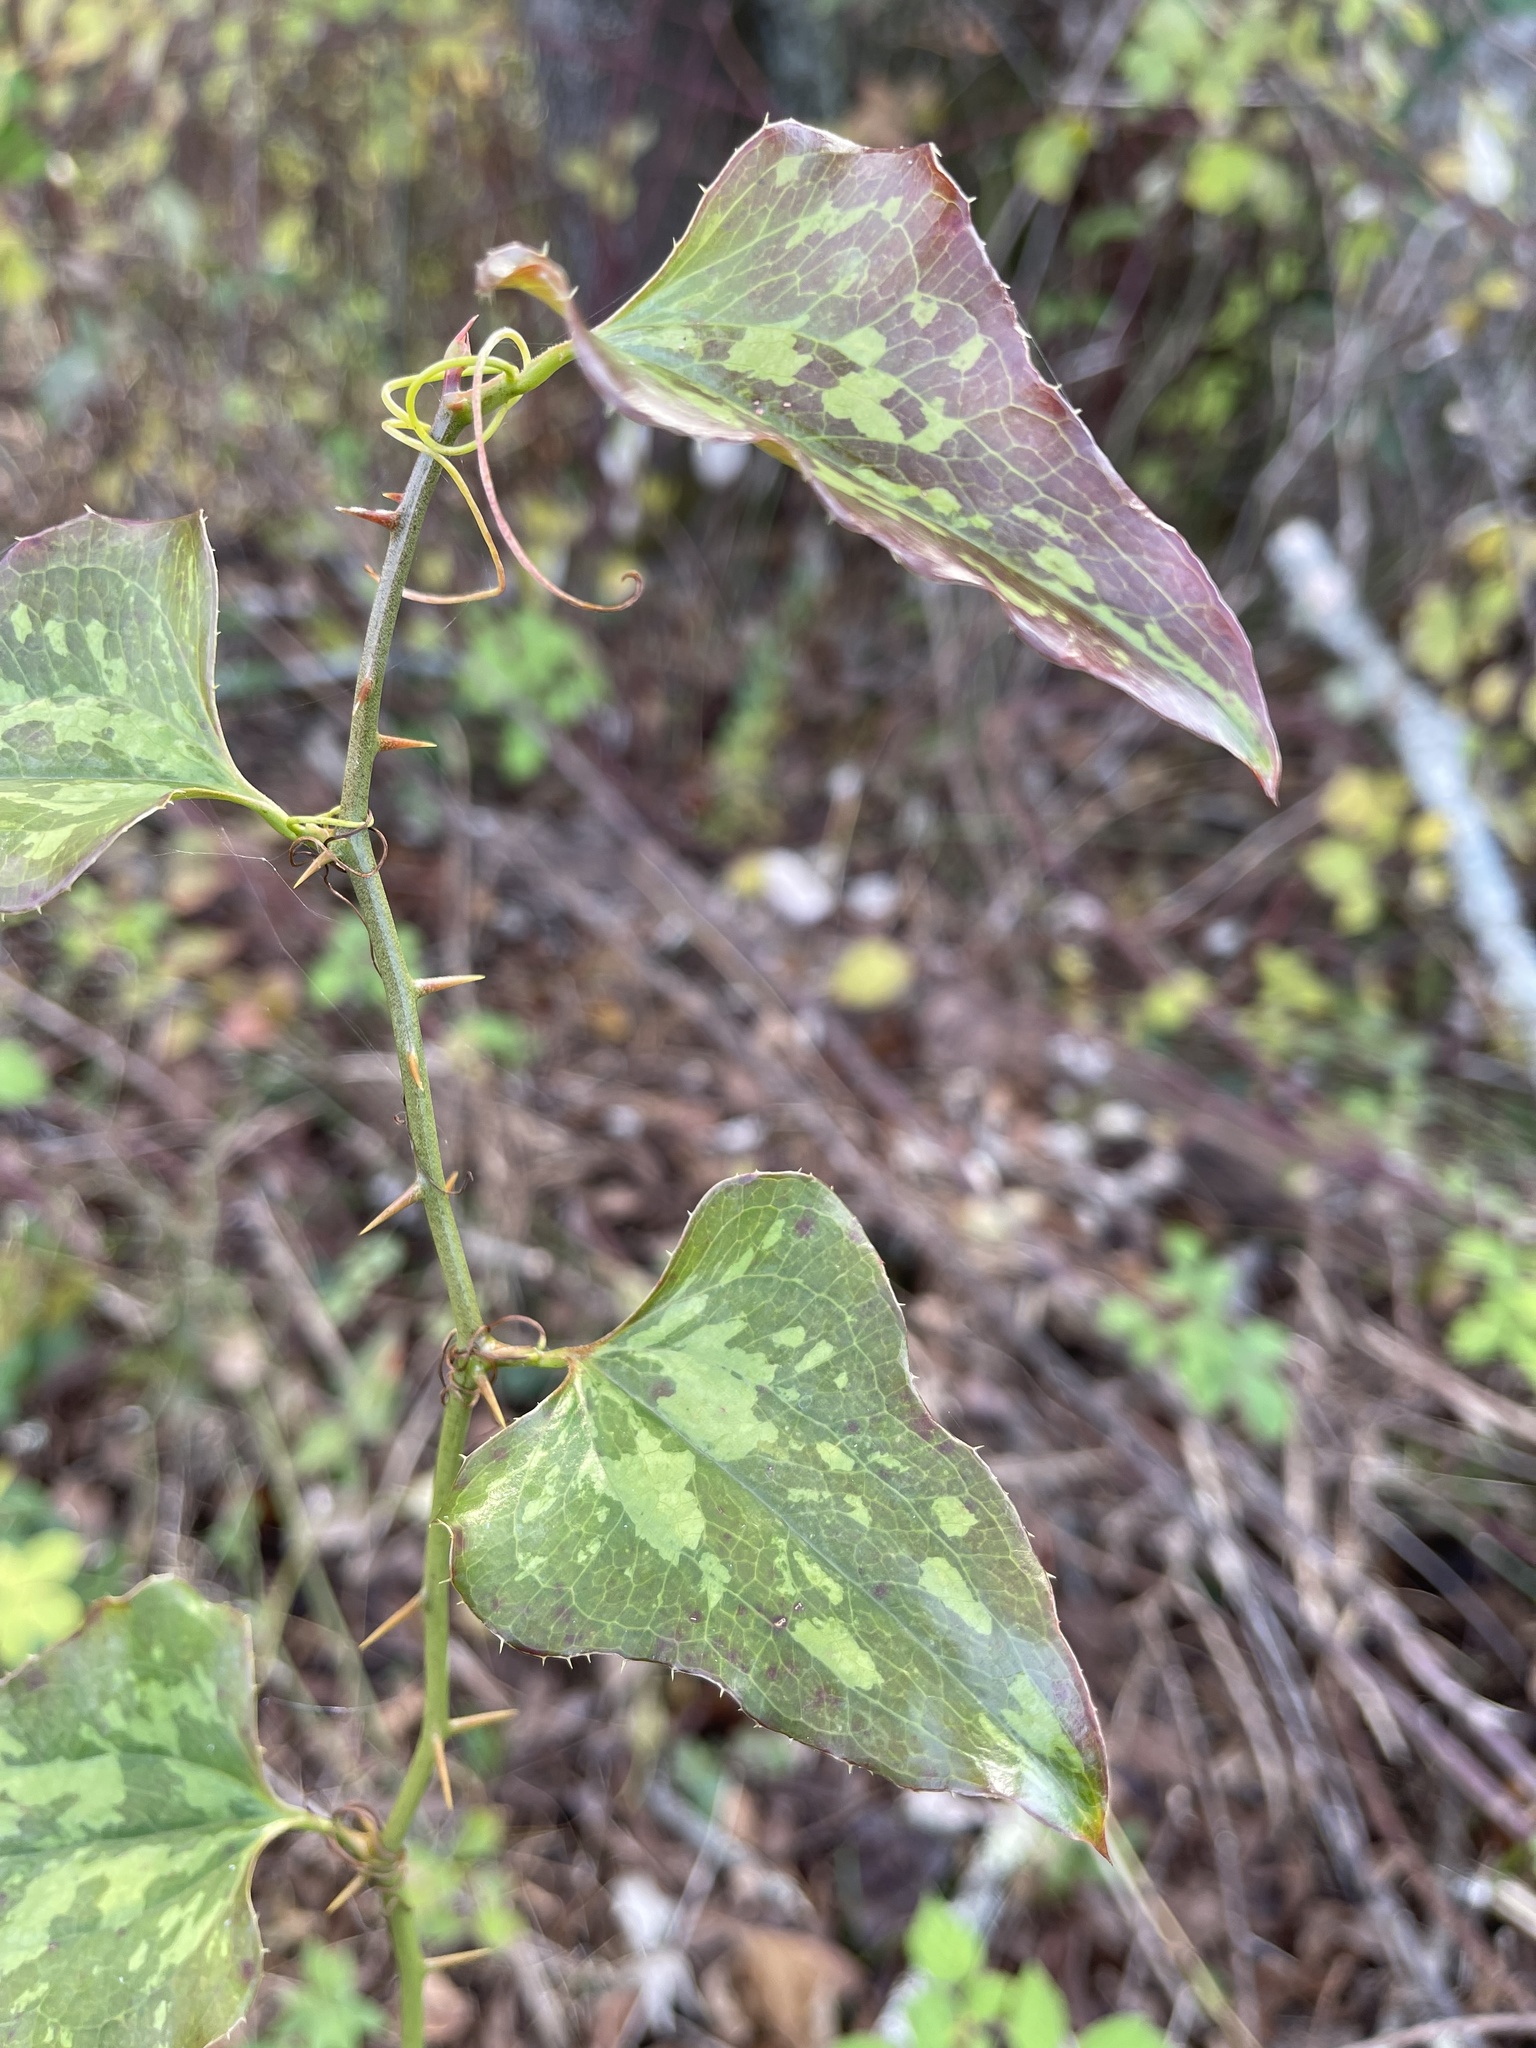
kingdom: Plantae
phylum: Tracheophyta
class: Liliopsida
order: Liliales
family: Smilacaceae
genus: Smilax
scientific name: Smilax bona-nox
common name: Catbrier
